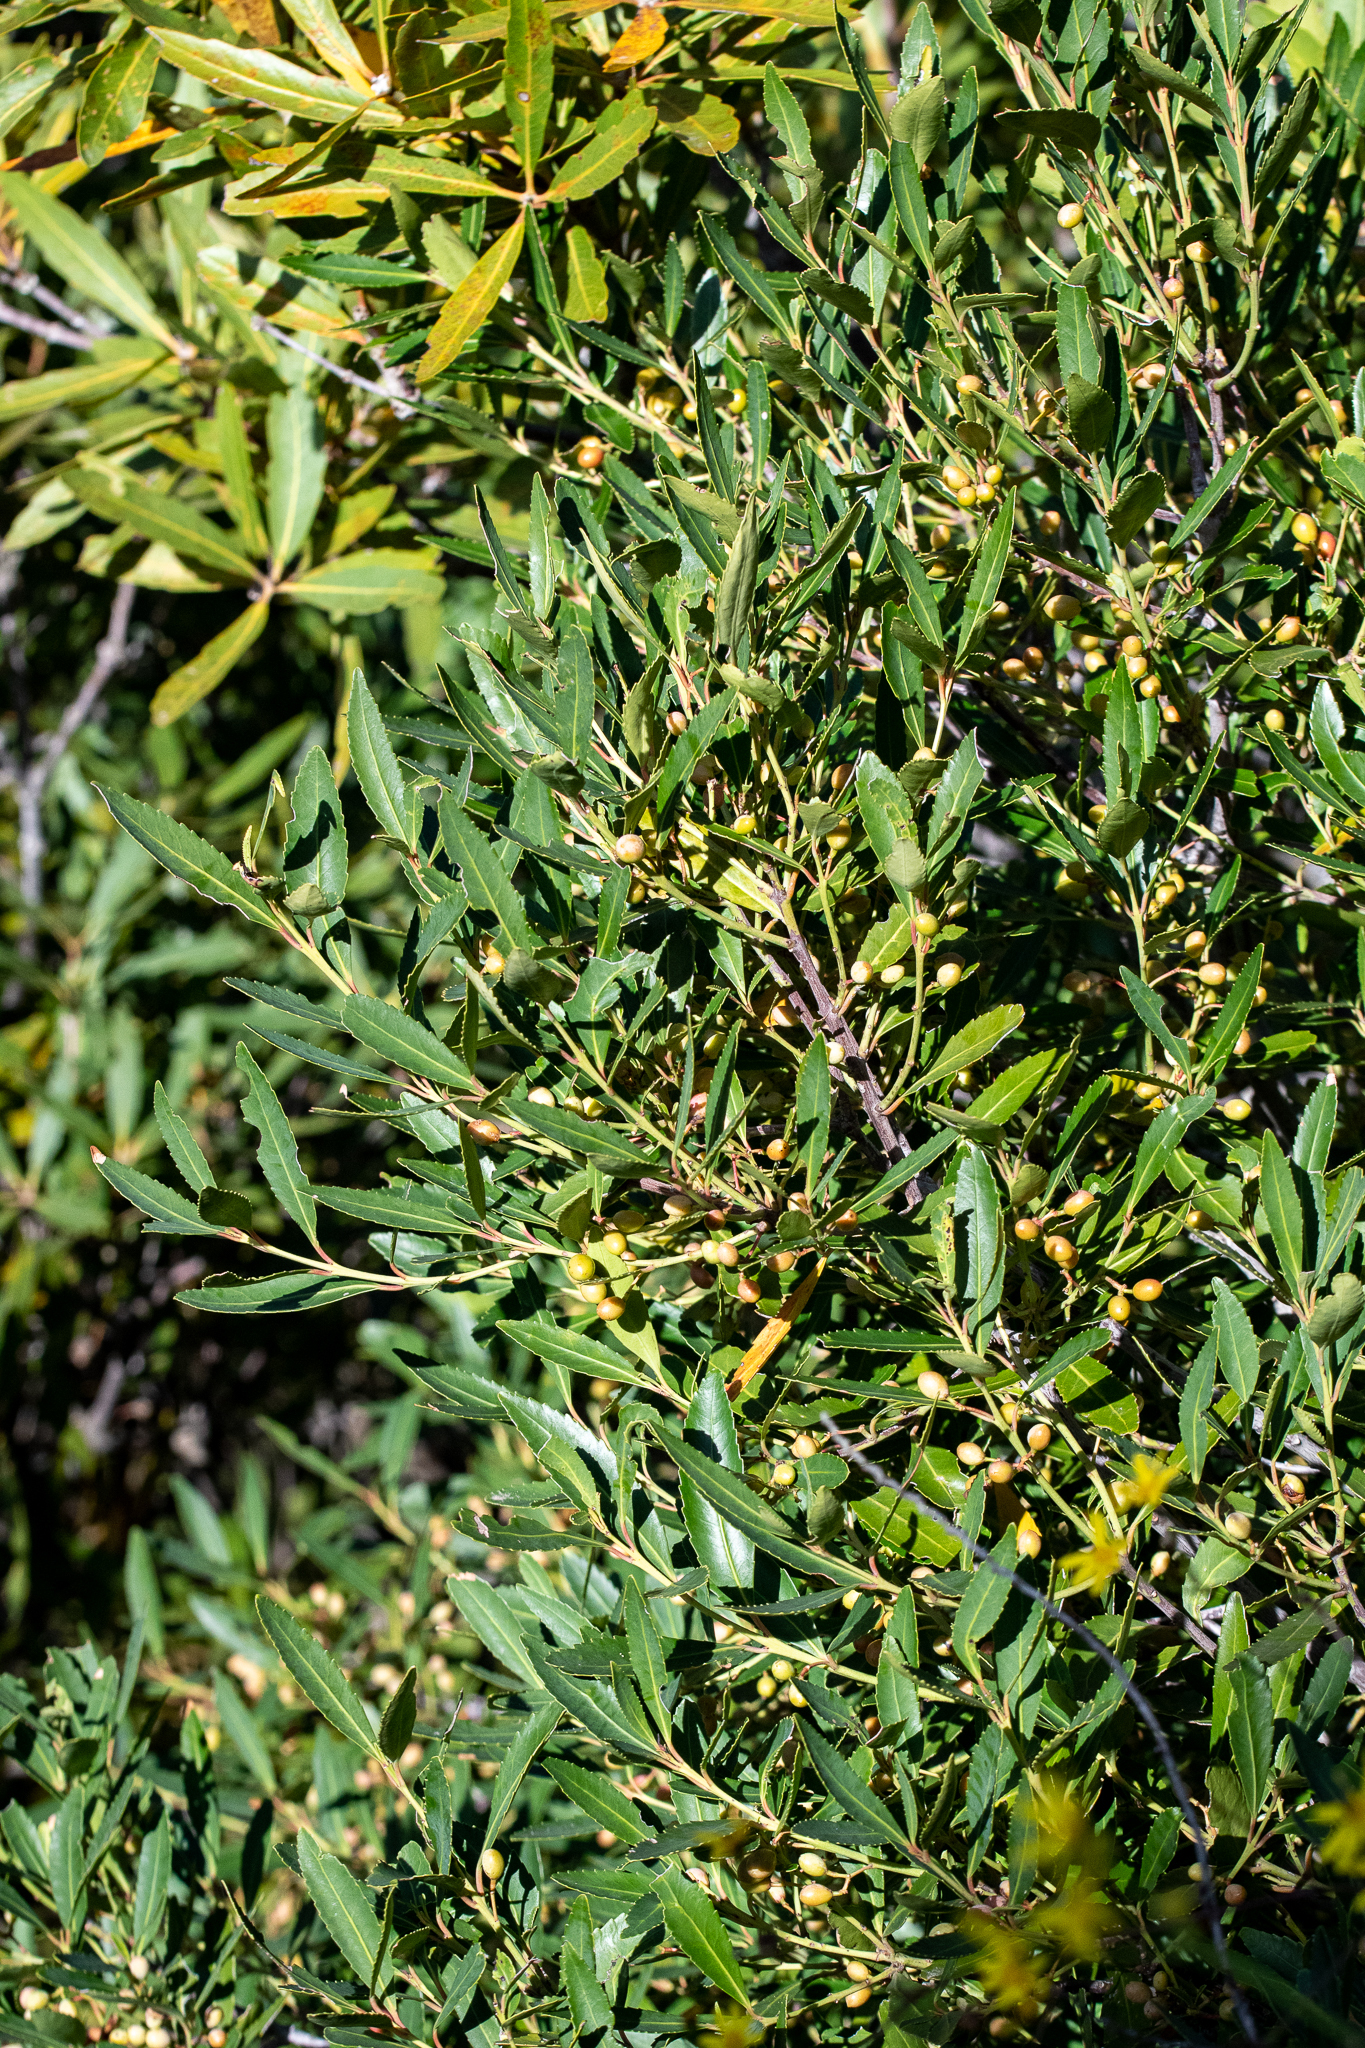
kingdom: Plantae
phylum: Tracheophyta
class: Magnoliopsida
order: Celastrales
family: Celastraceae
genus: Elaeodendron
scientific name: Elaeodendron schinoides
